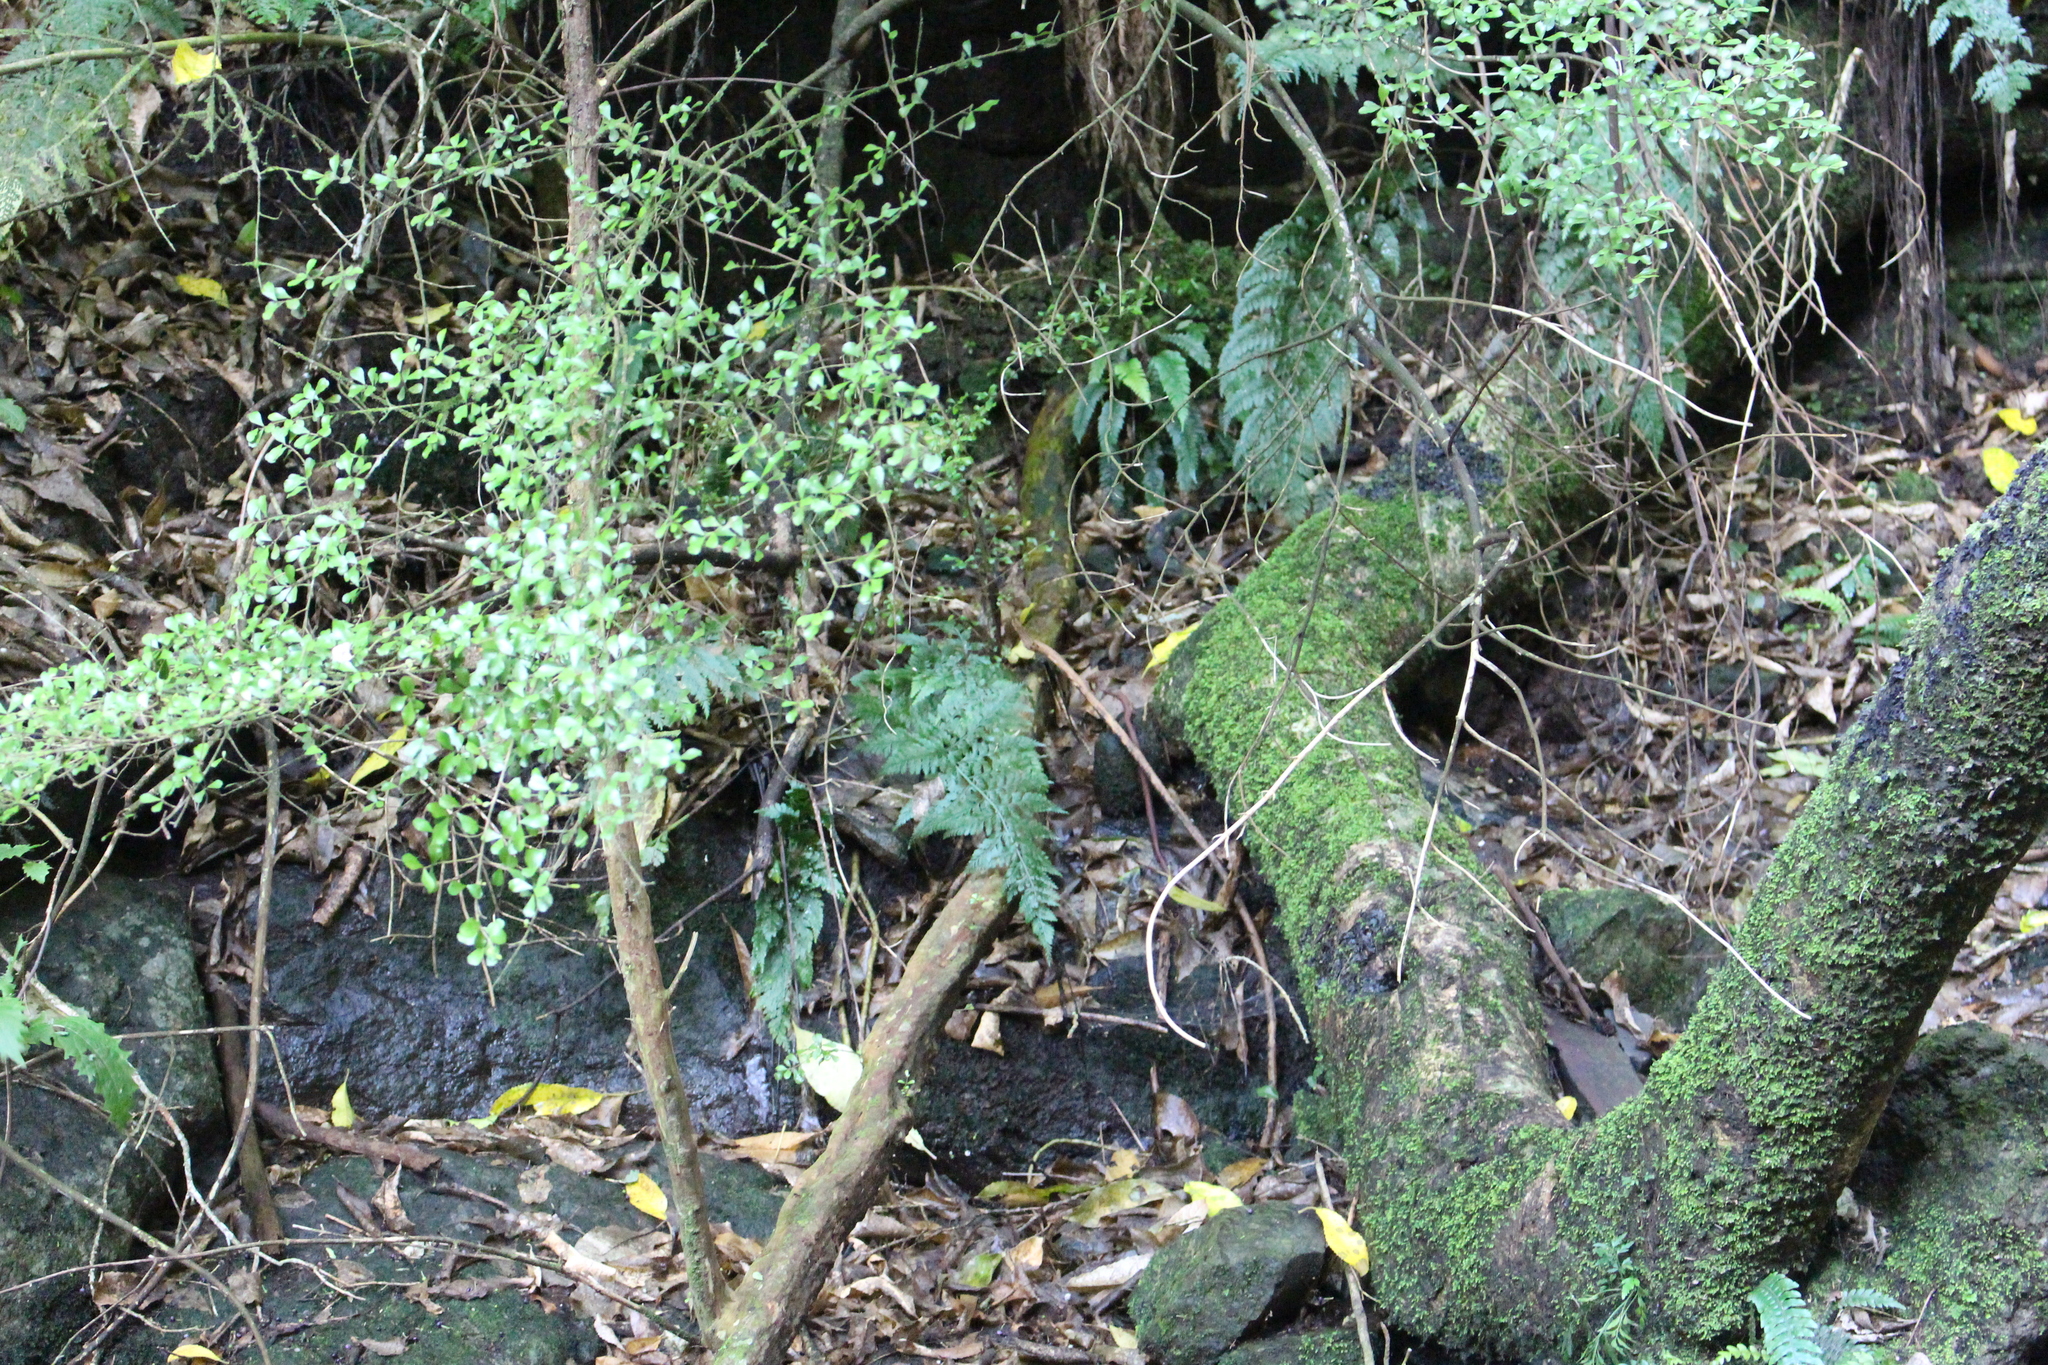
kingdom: Plantae
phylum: Tracheophyta
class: Magnoliopsida
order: Myrtales
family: Myrtaceae
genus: Lophomyrtus
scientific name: Lophomyrtus obcordata
